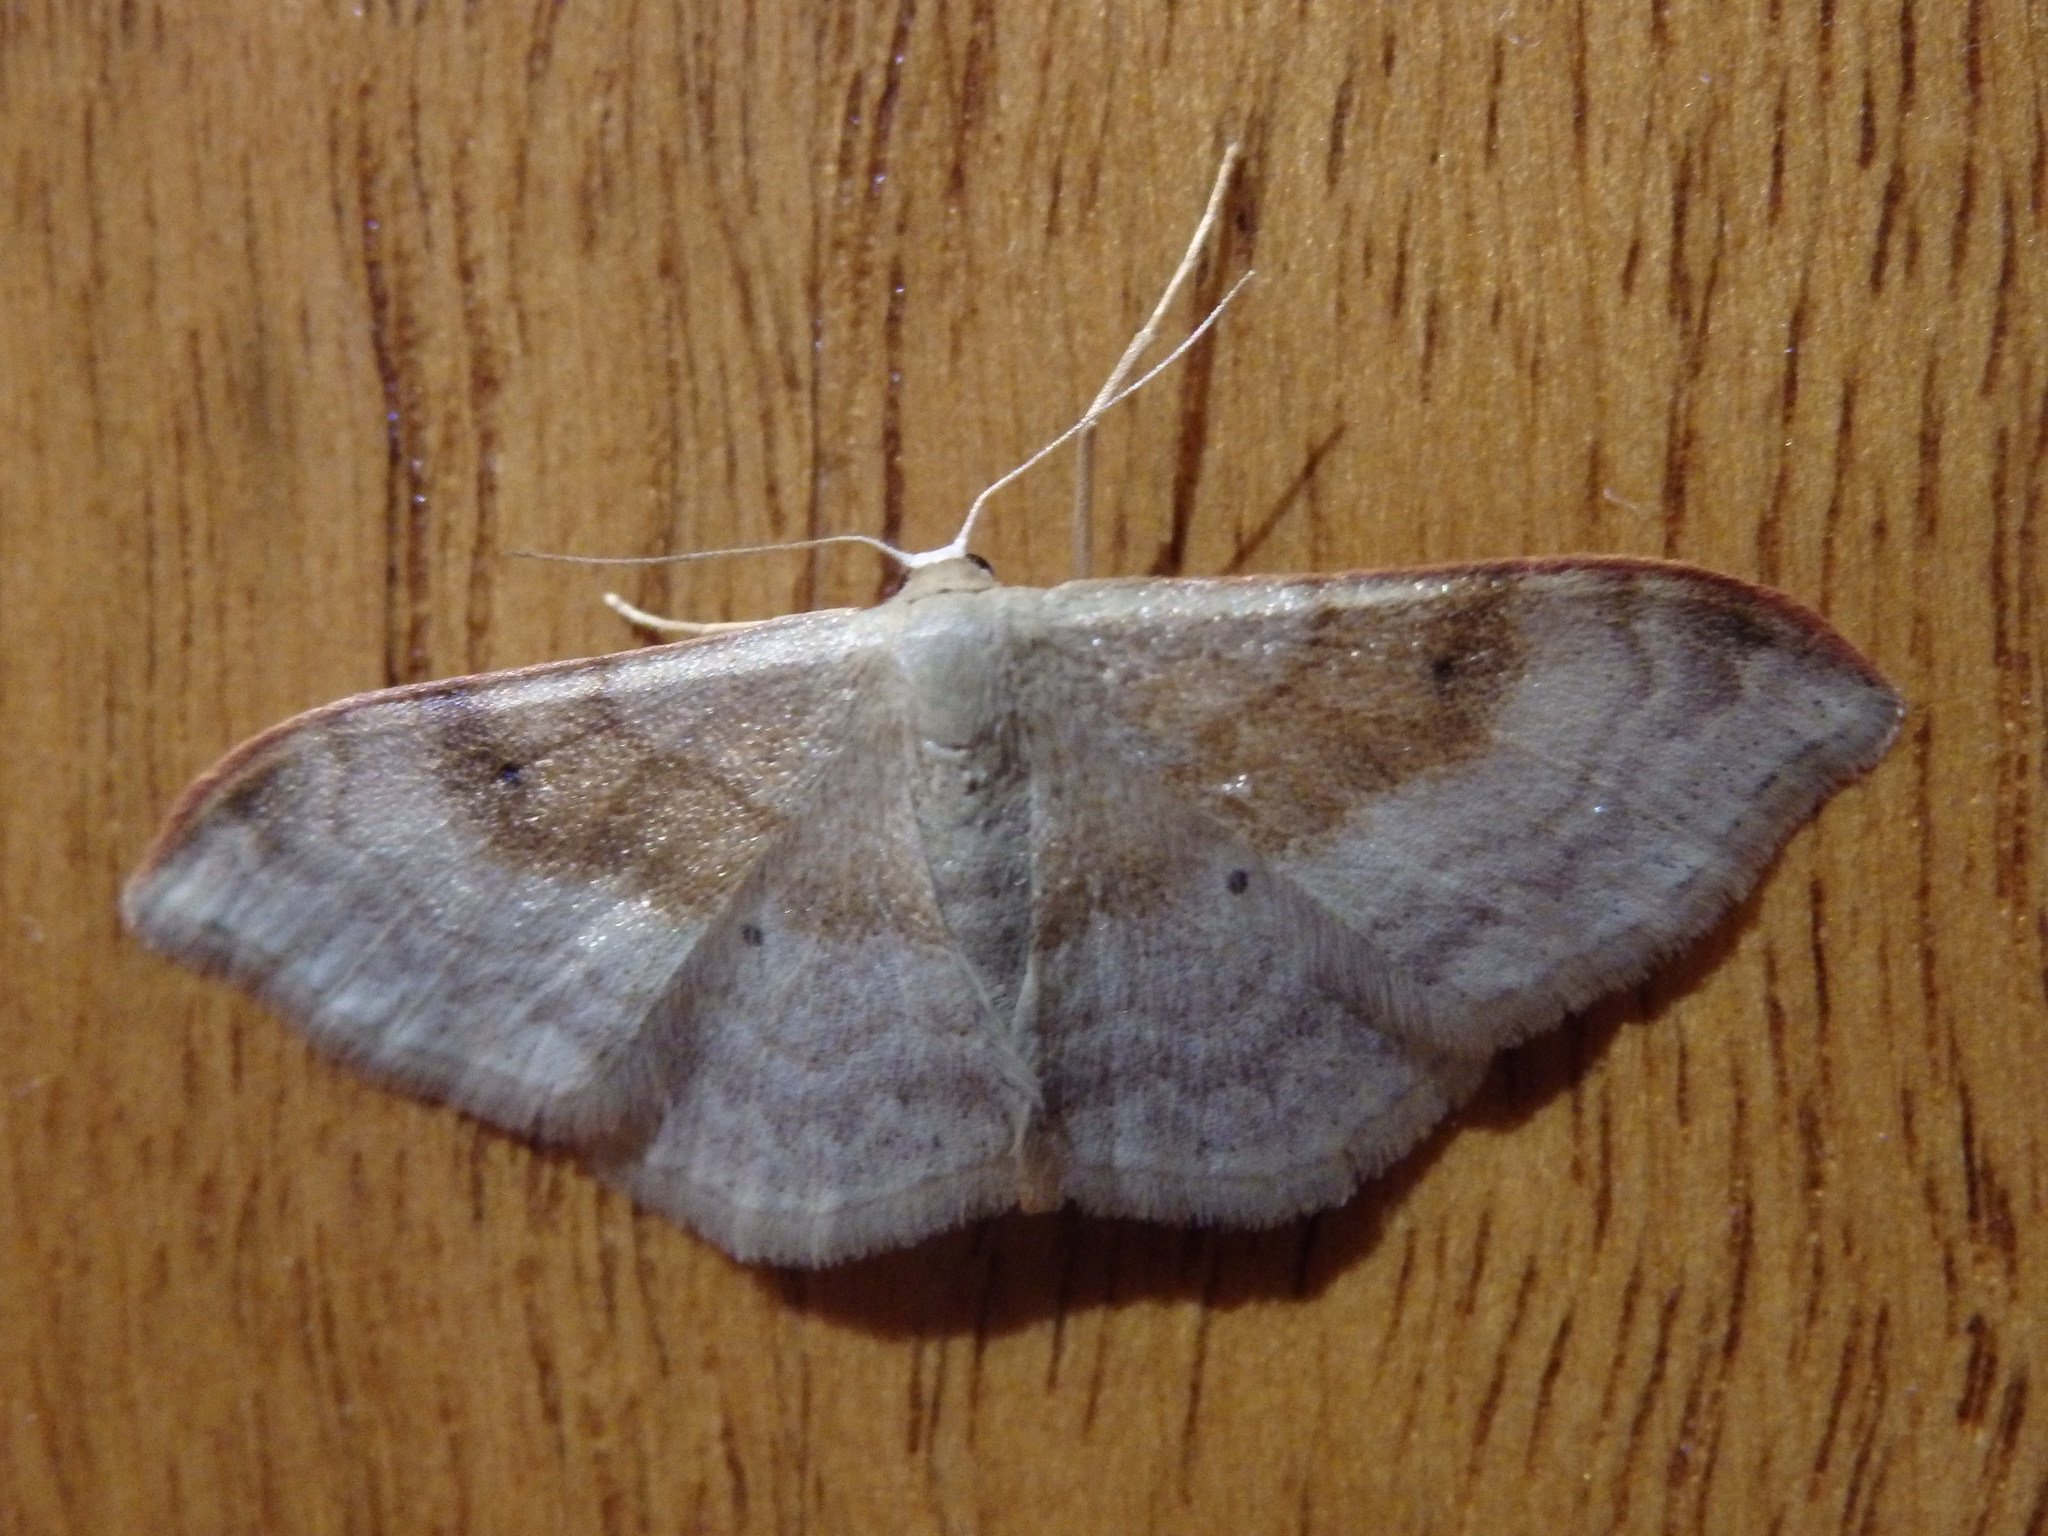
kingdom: Animalia
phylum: Arthropoda
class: Insecta
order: Lepidoptera
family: Geometridae
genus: Idaea
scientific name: Idaea degeneraria
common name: Portland ribbon wave
